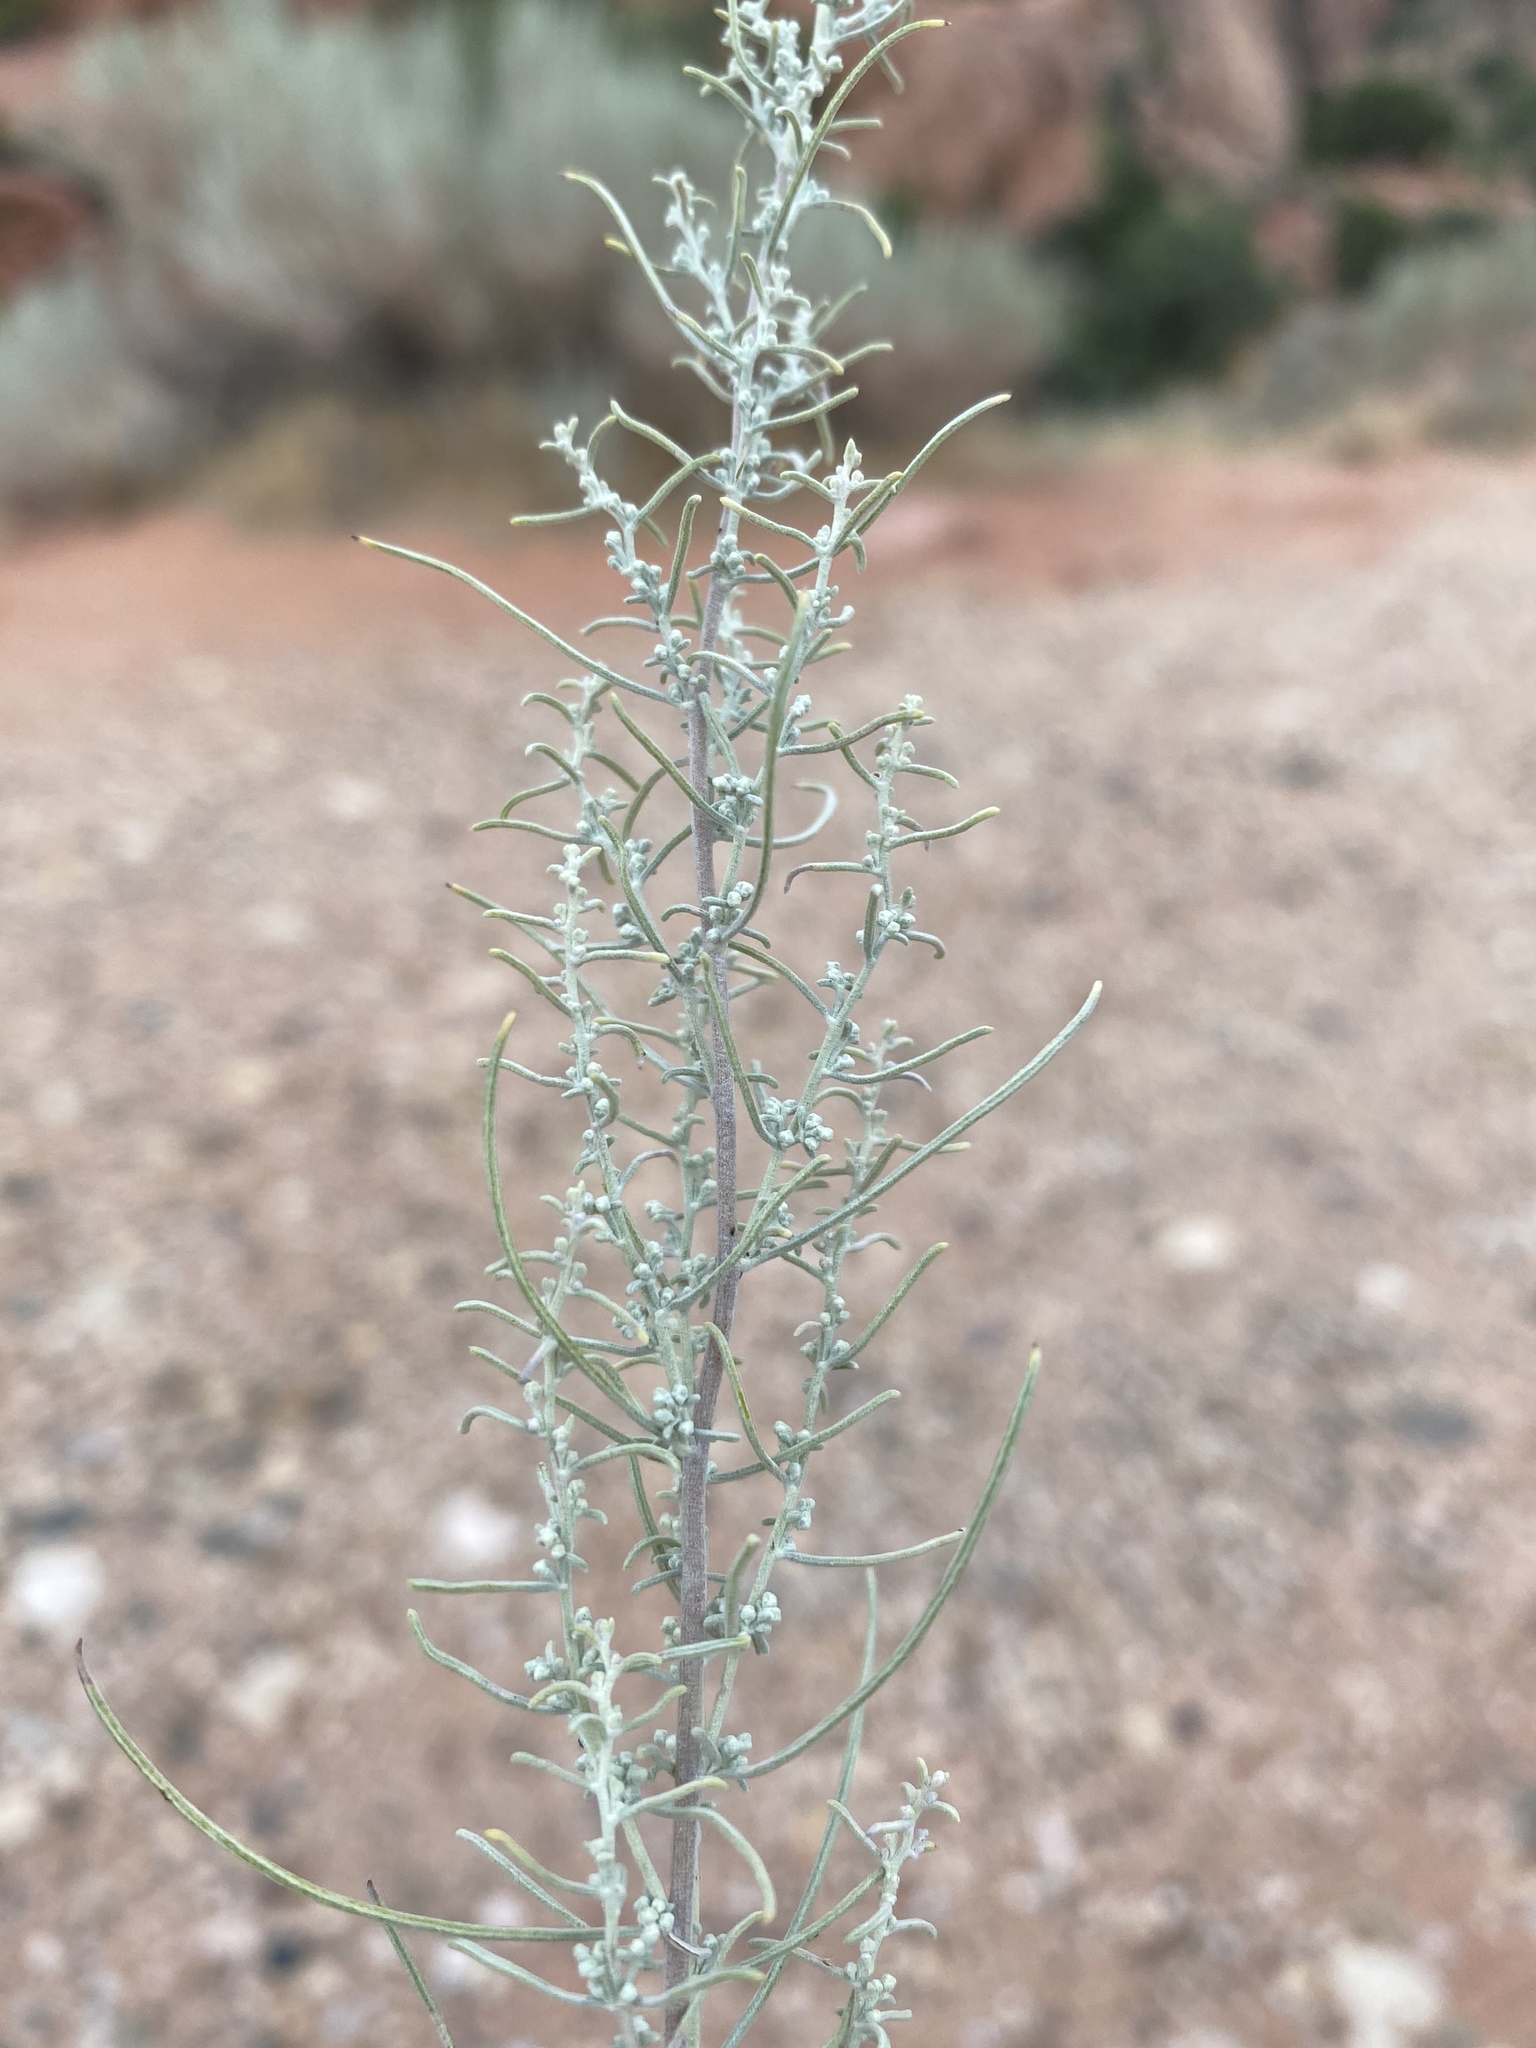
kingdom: Plantae
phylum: Tracheophyta
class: Magnoliopsida
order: Asterales
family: Asteraceae
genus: Artemisia
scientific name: Artemisia filifolia
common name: Sand-sage
